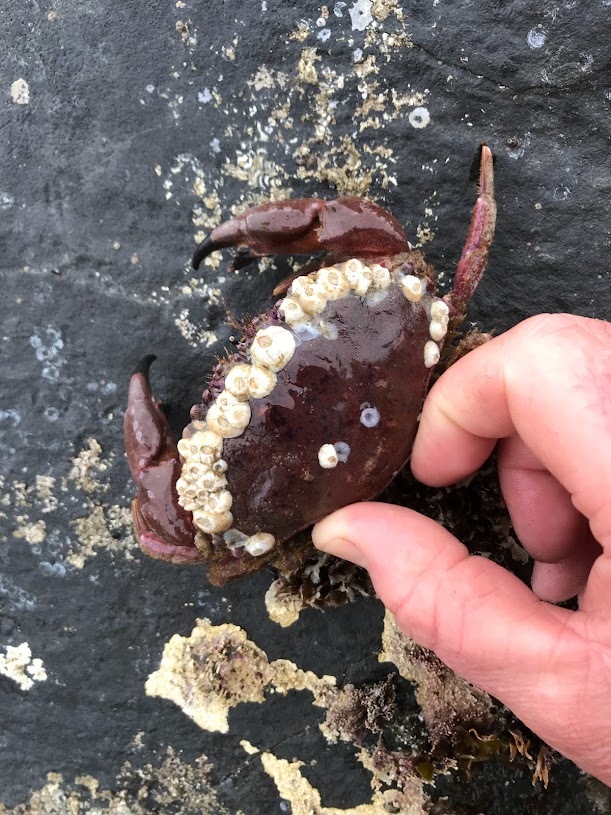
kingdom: Animalia
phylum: Arthropoda
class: Malacostraca
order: Decapoda
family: Cancridae
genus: Romaleon
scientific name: Romaleon antennarium
